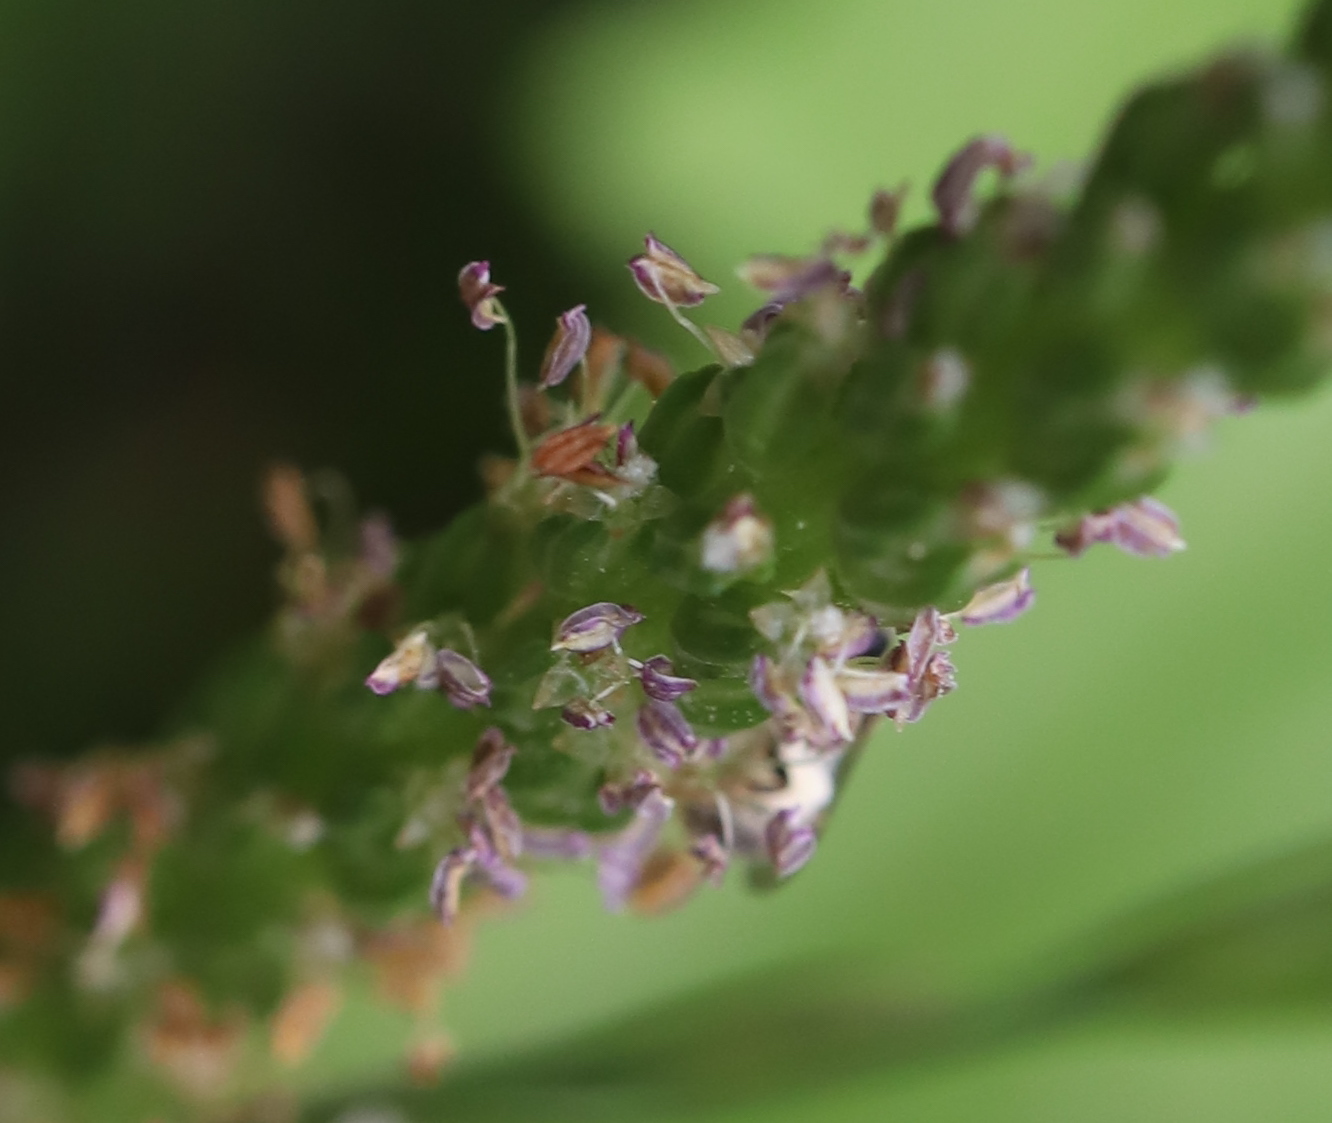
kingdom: Plantae
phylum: Tracheophyta
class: Magnoliopsida
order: Lamiales
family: Plantaginaceae
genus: Plantago
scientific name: Plantago
